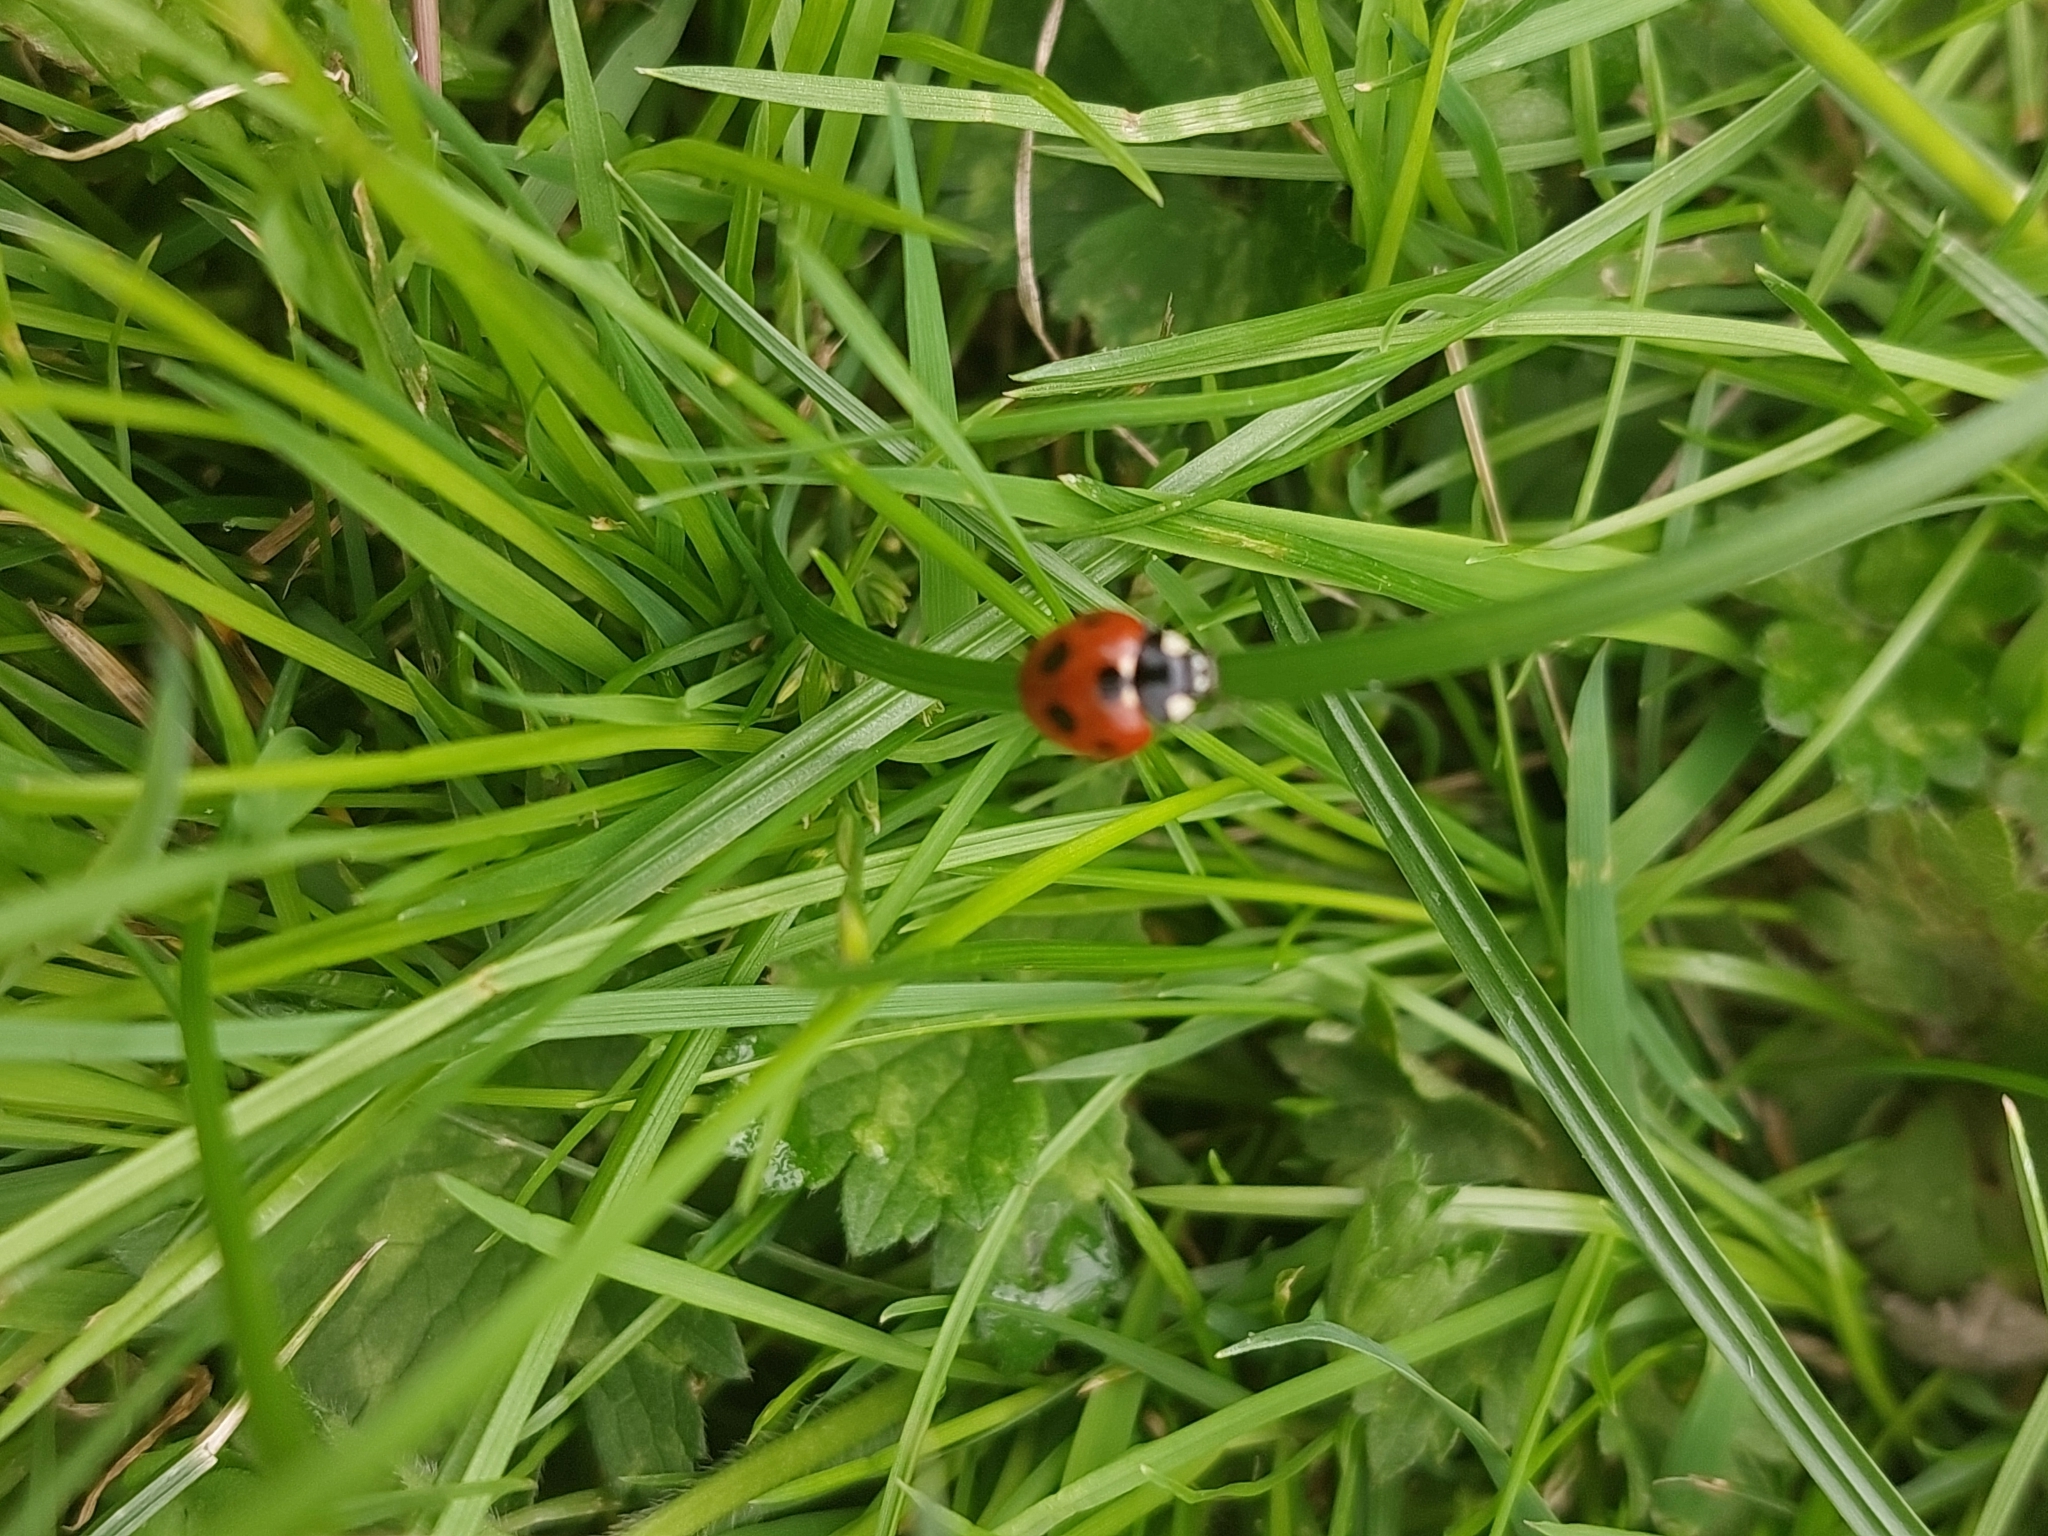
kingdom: Animalia
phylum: Arthropoda
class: Insecta
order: Coleoptera
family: Coccinellidae
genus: Coccinella
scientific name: Coccinella septempunctata
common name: Sevenspotted lady beetle
